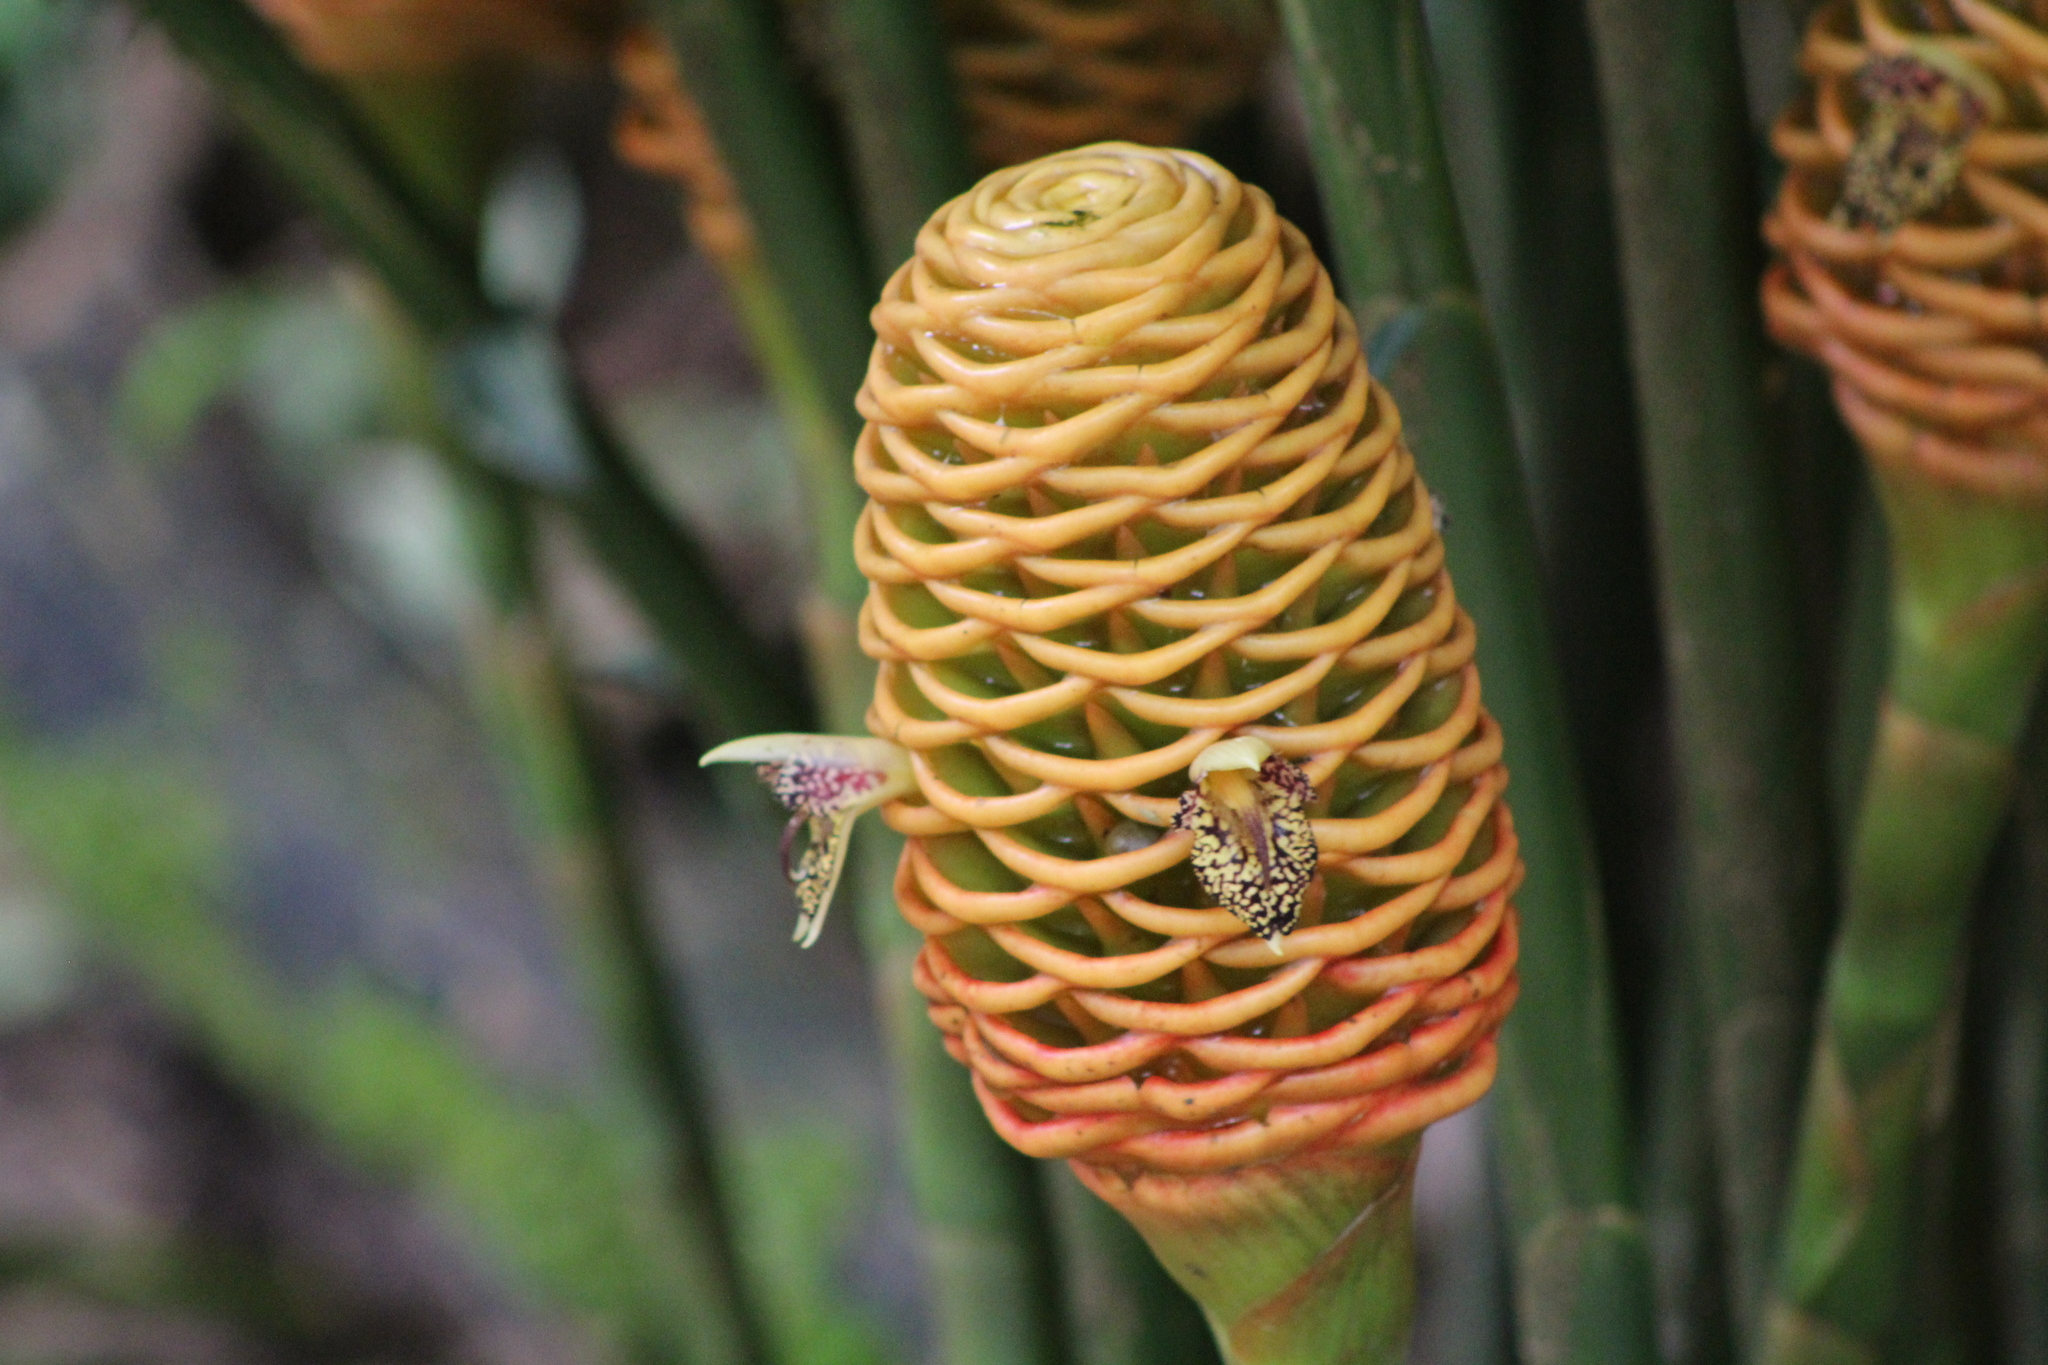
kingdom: Plantae
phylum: Tracheophyta
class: Liliopsida
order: Zingiberales
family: Zingiberaceae
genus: Zingiber
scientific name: Zingiber spectabile
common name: Beehive ginger
